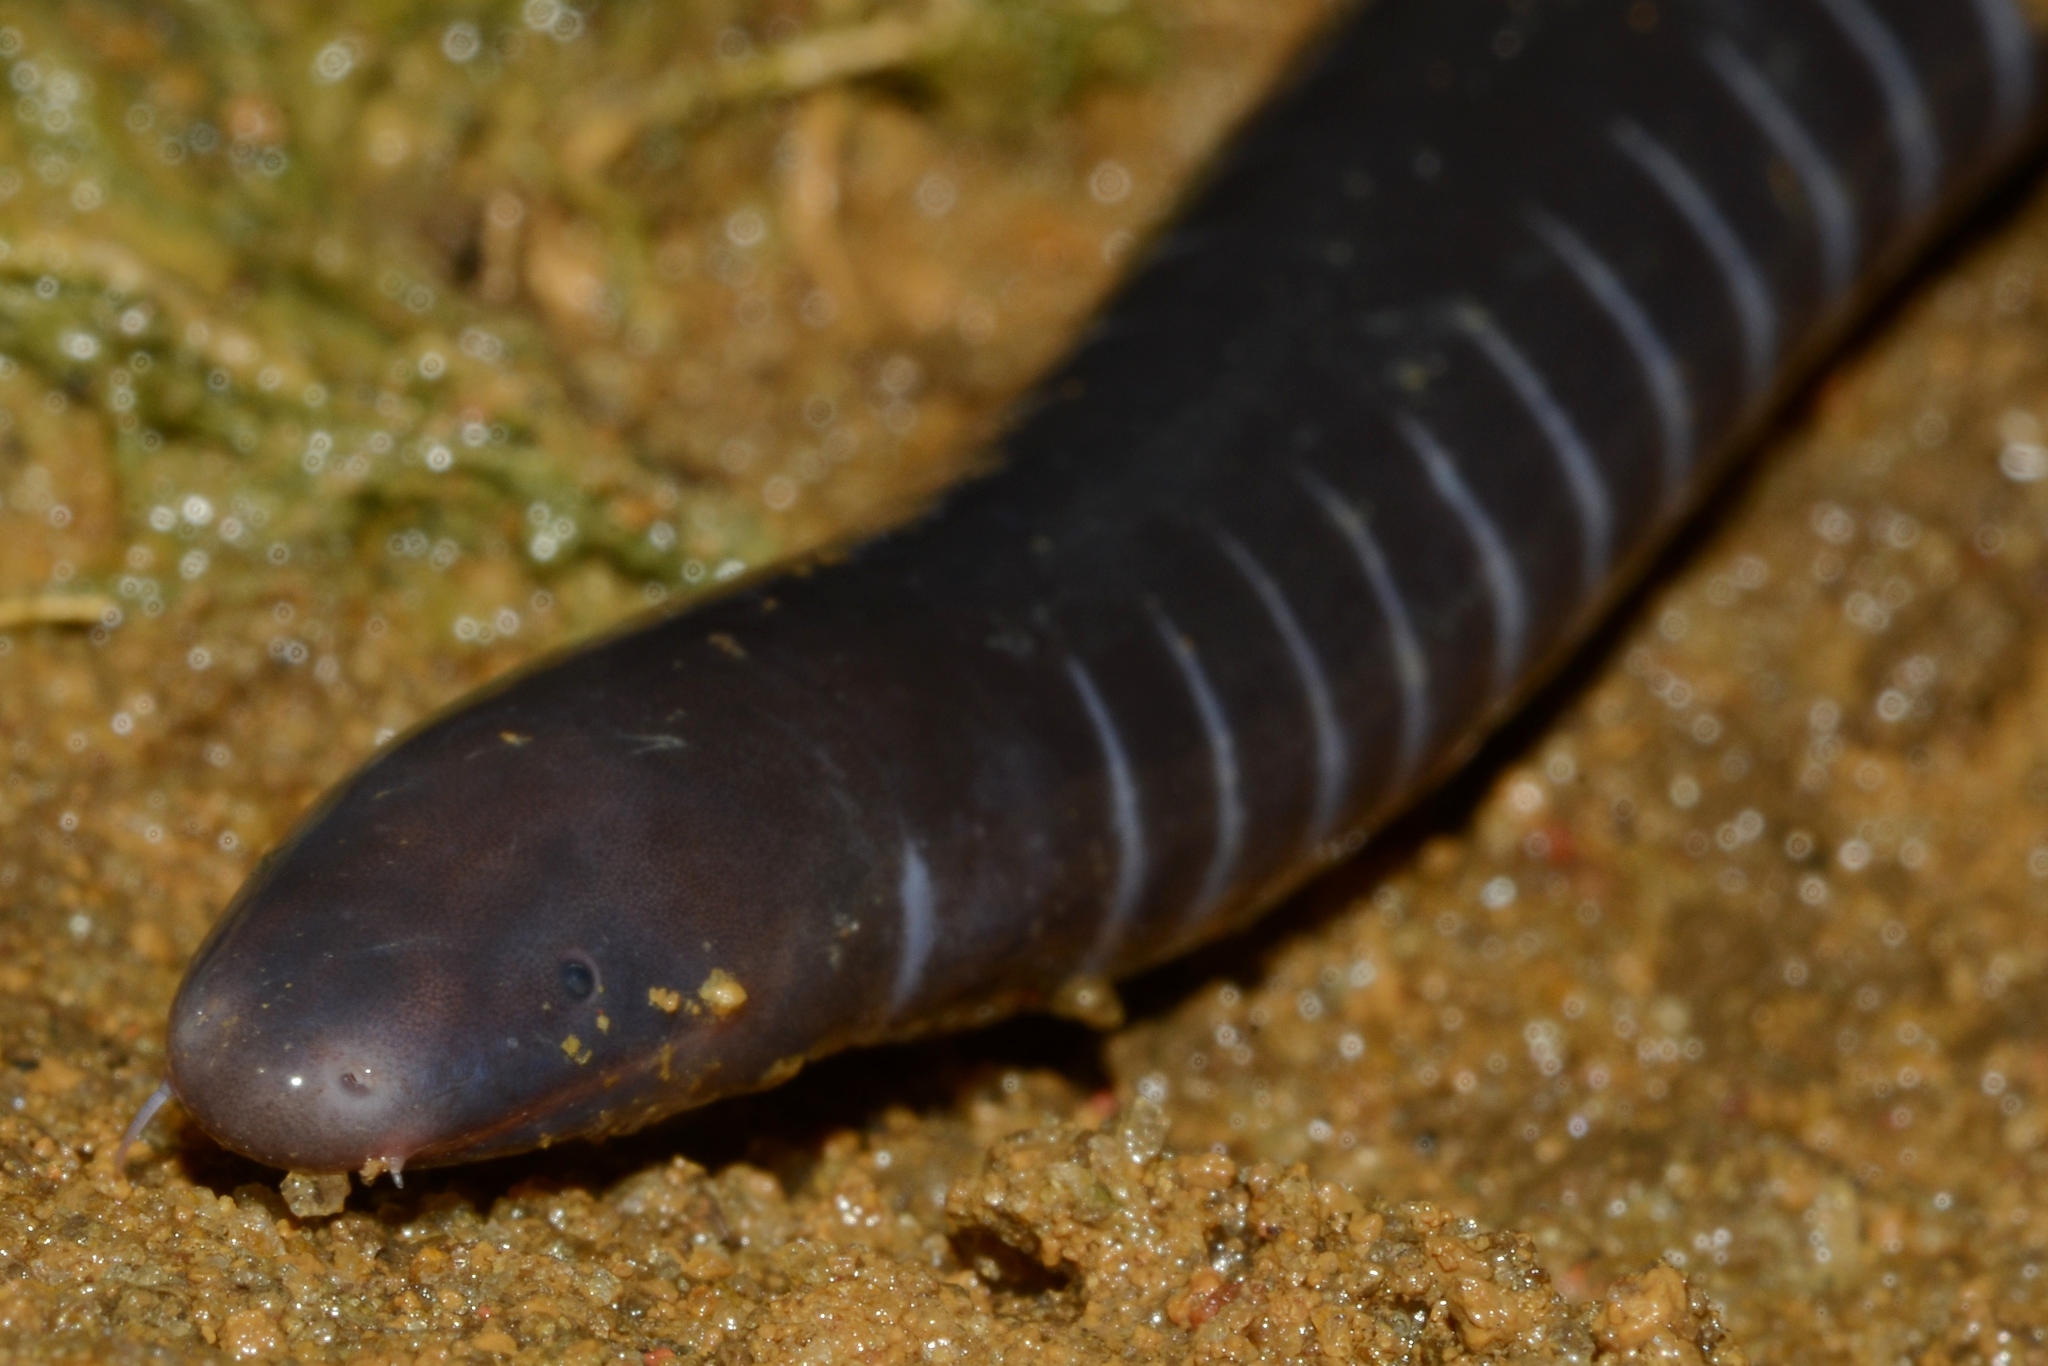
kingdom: Animalia
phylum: Chordata
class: Amphibia
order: Gymnophiona
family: Dermophiidae
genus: Geotrypetes
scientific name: Geotrypetes seraphini
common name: Gaboon caecilian
